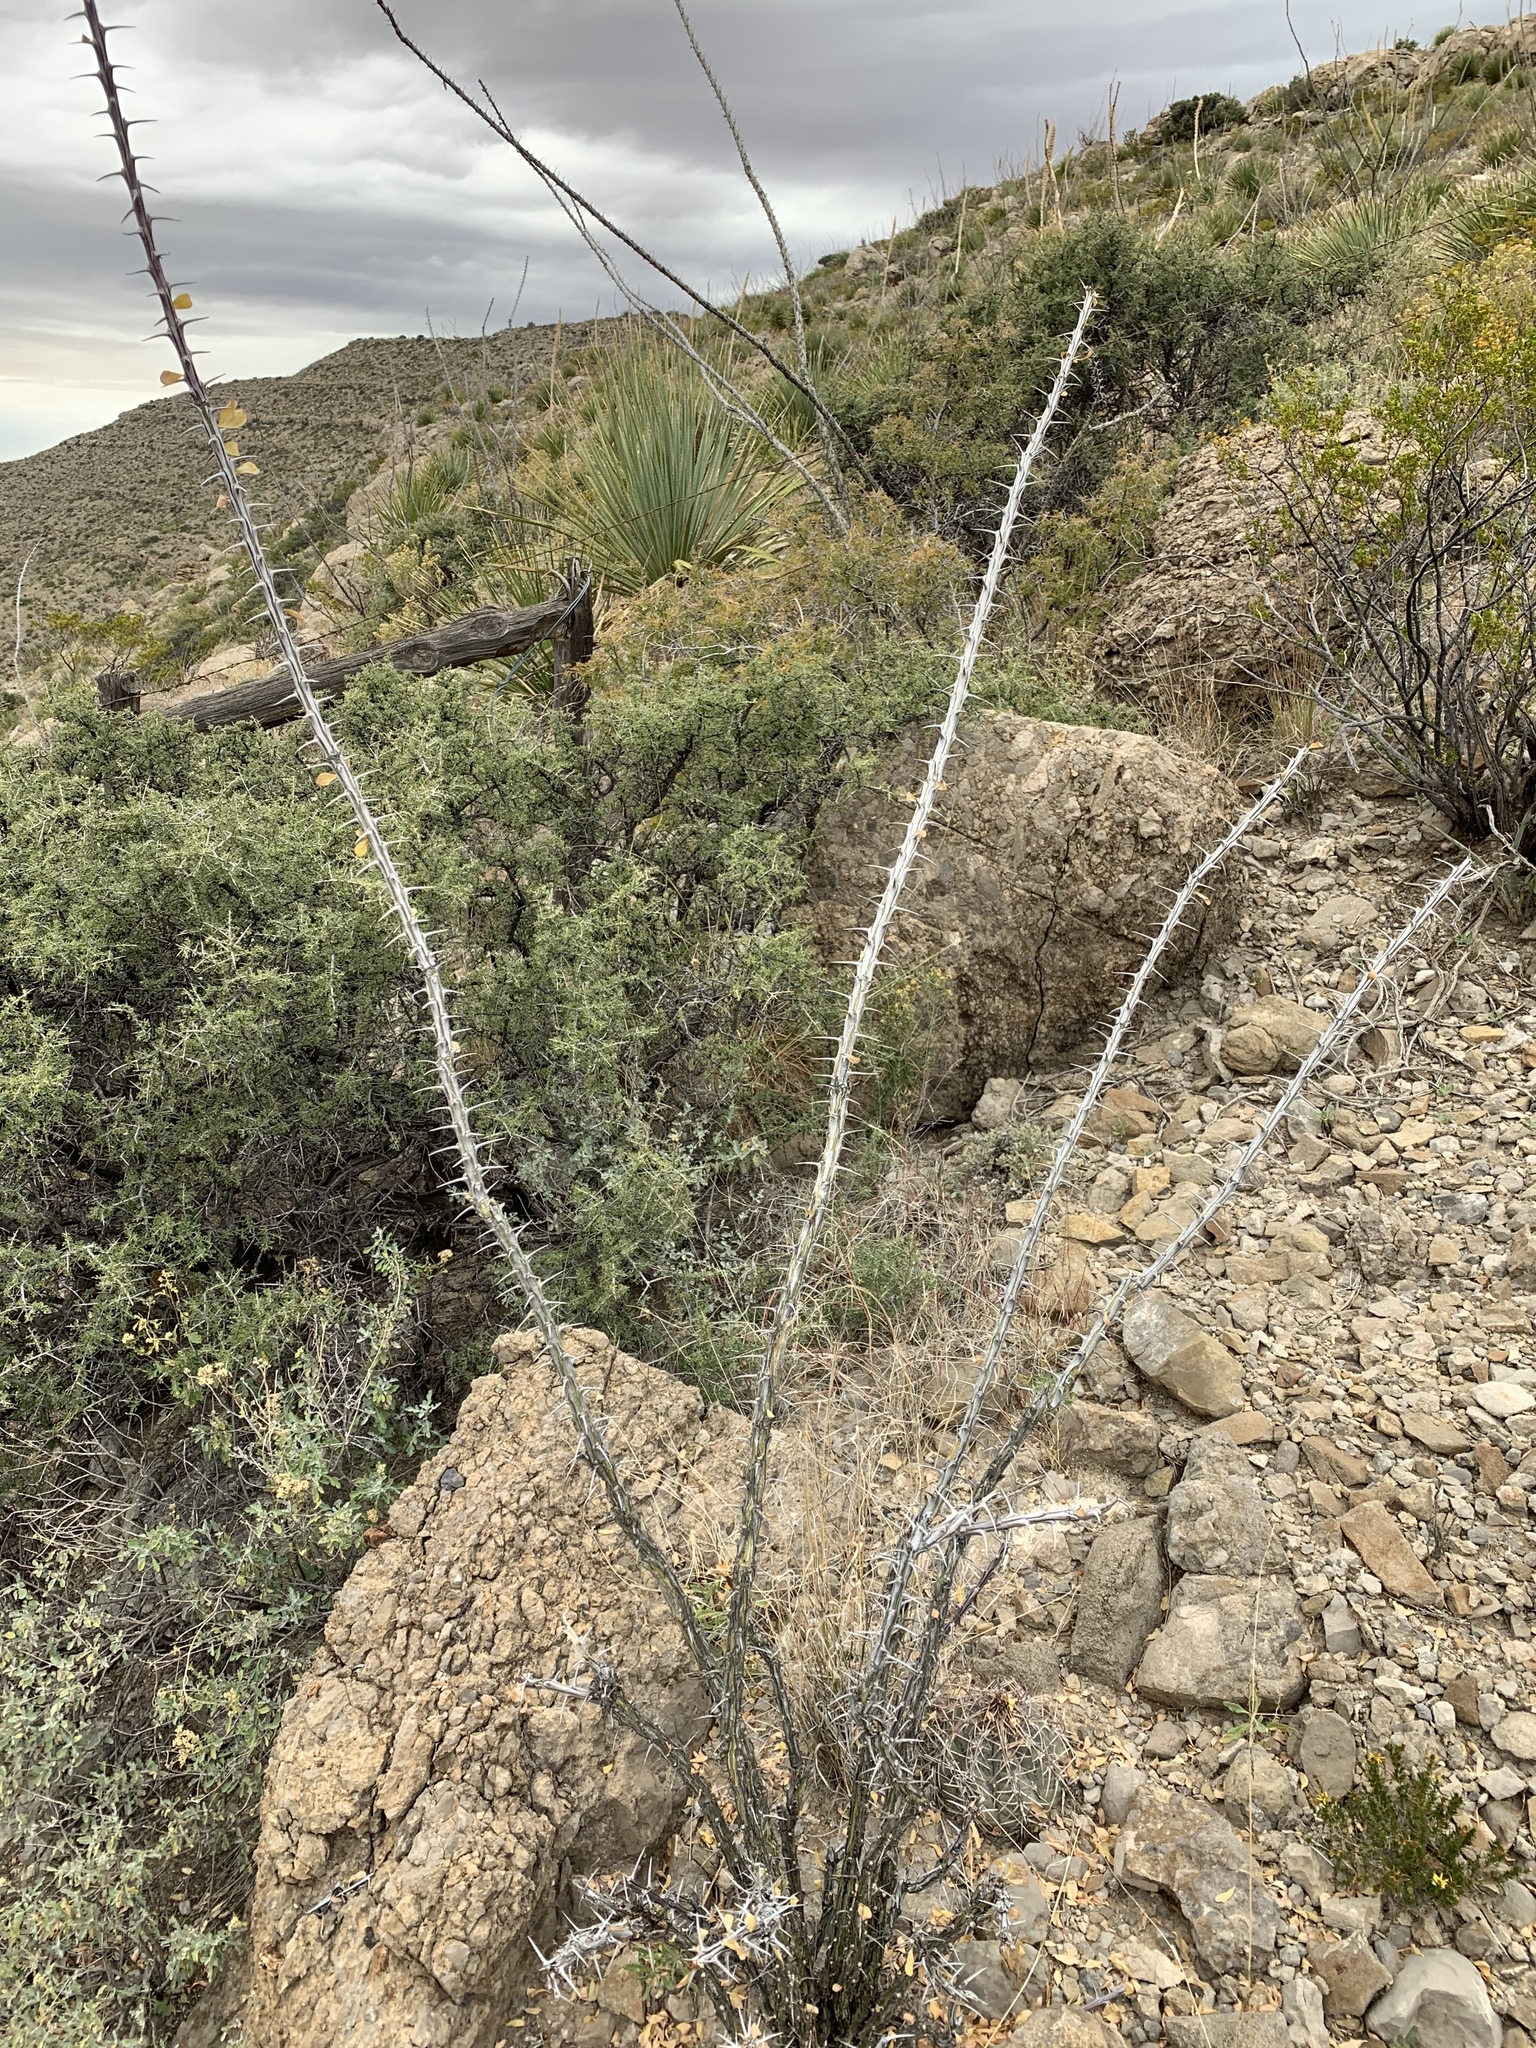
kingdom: Plantae
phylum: Tracheophyta
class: Magnoliopsida
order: Ericales
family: Fouquieriaceae
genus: Fouquieria
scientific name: Fouquieria splendens
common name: Vine-cactus
